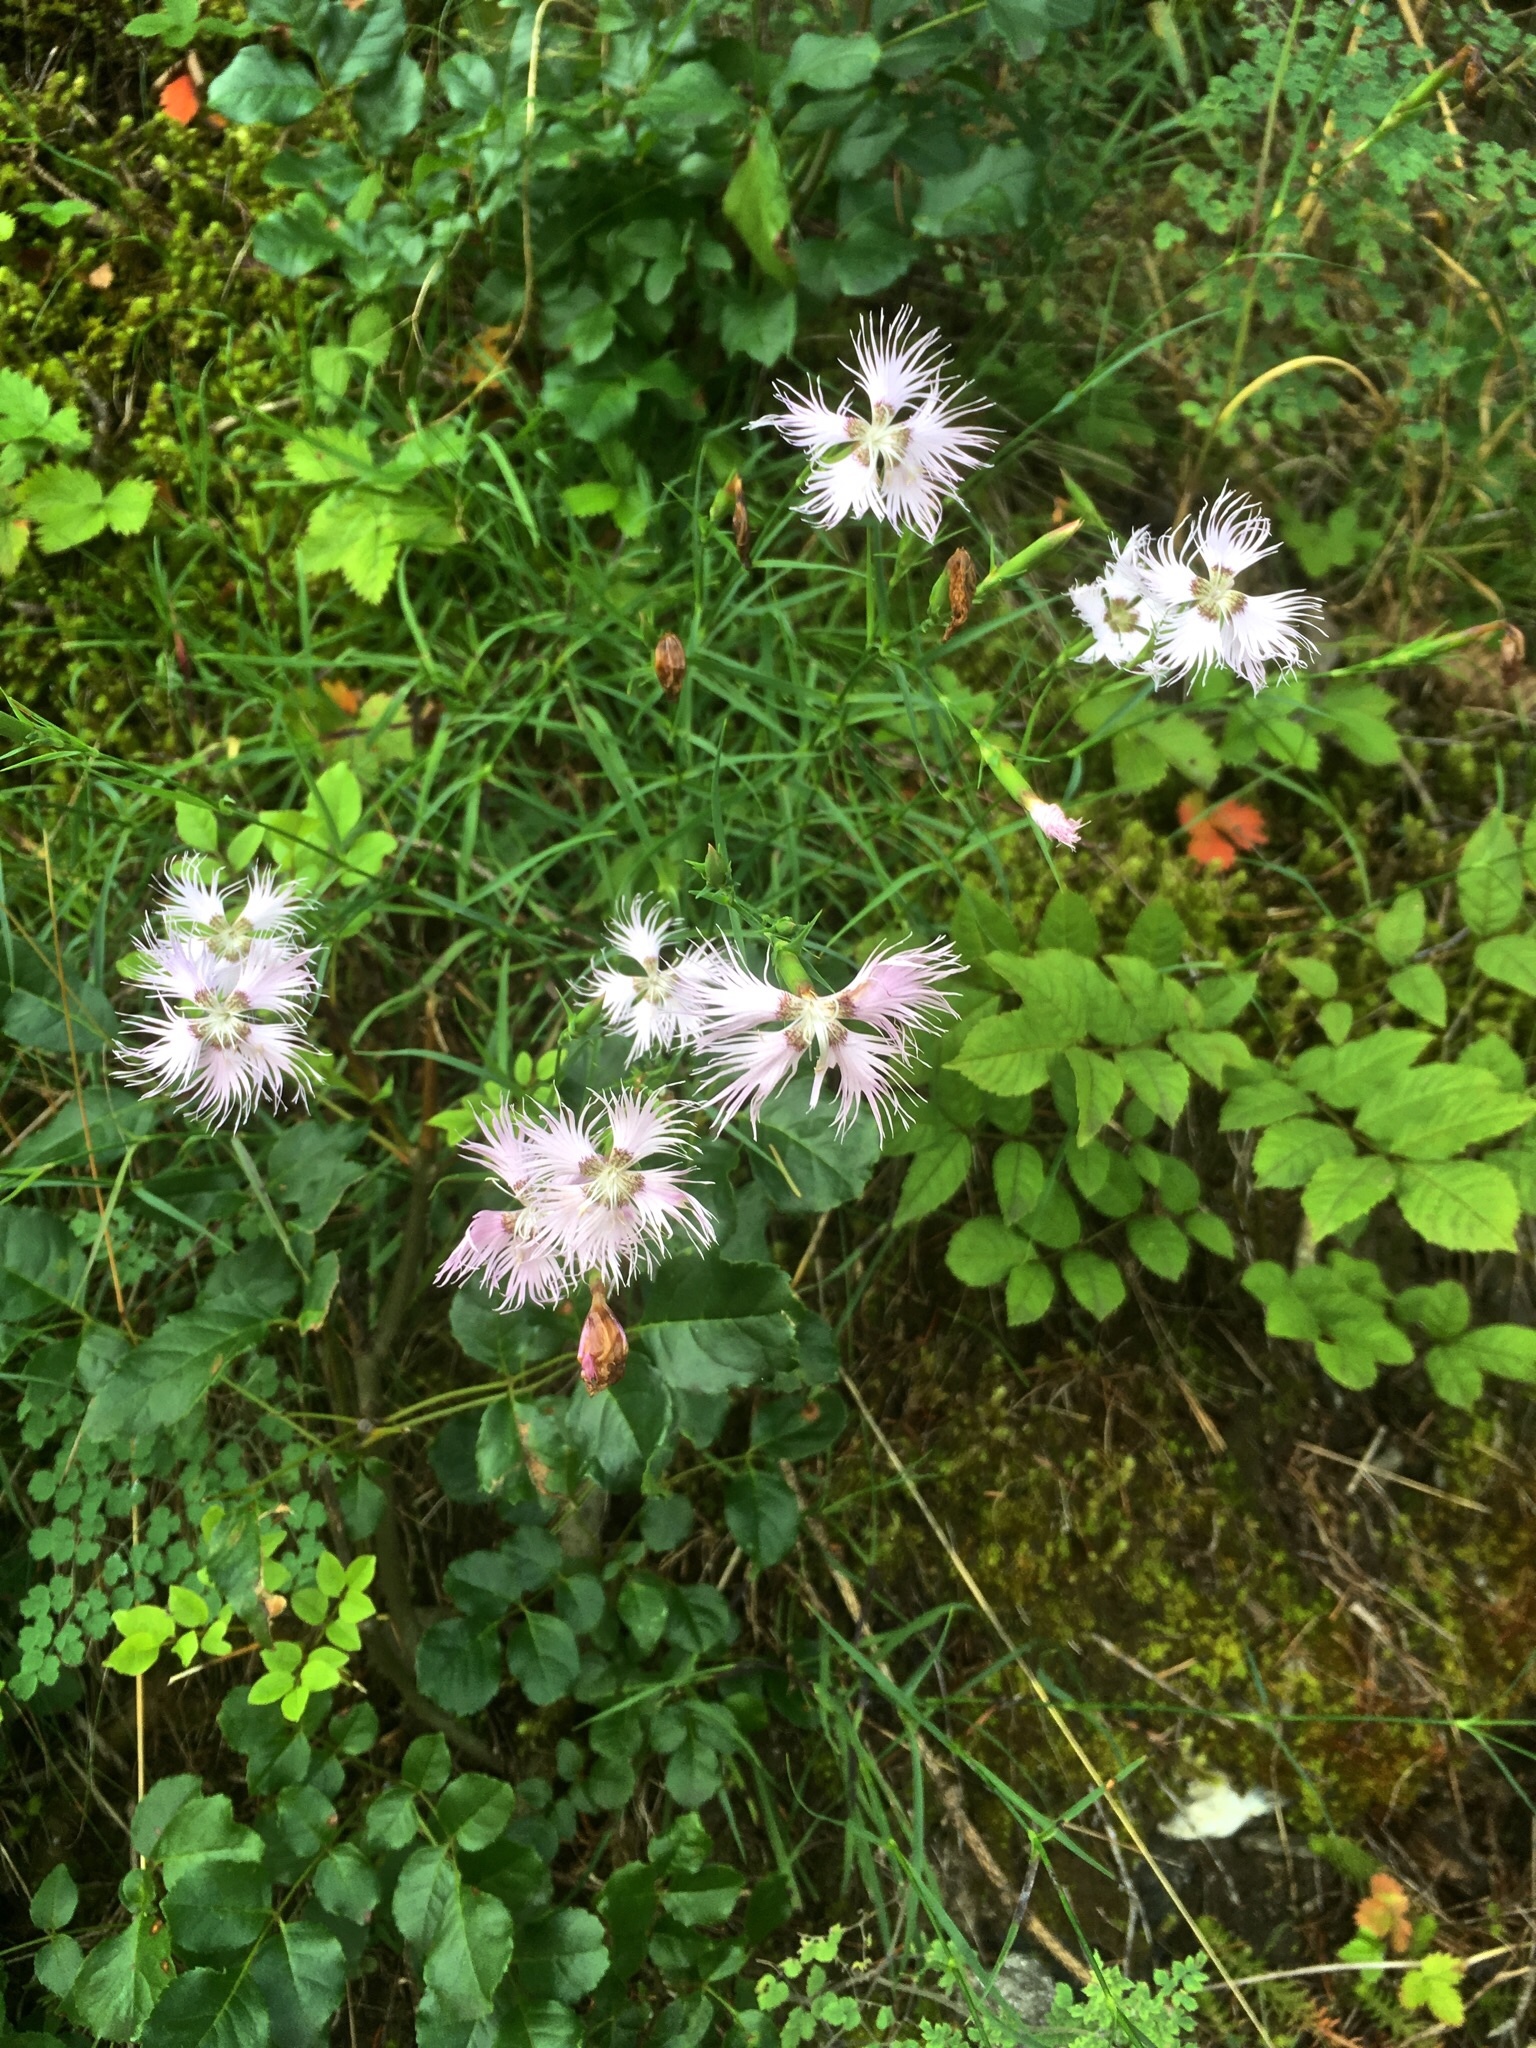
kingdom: Plantae
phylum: Tracheophyta
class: Magnoliopsida
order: Caryophyllales
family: Caryophyllaceae
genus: Dianthus
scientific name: Dianthus hyssopifolius
